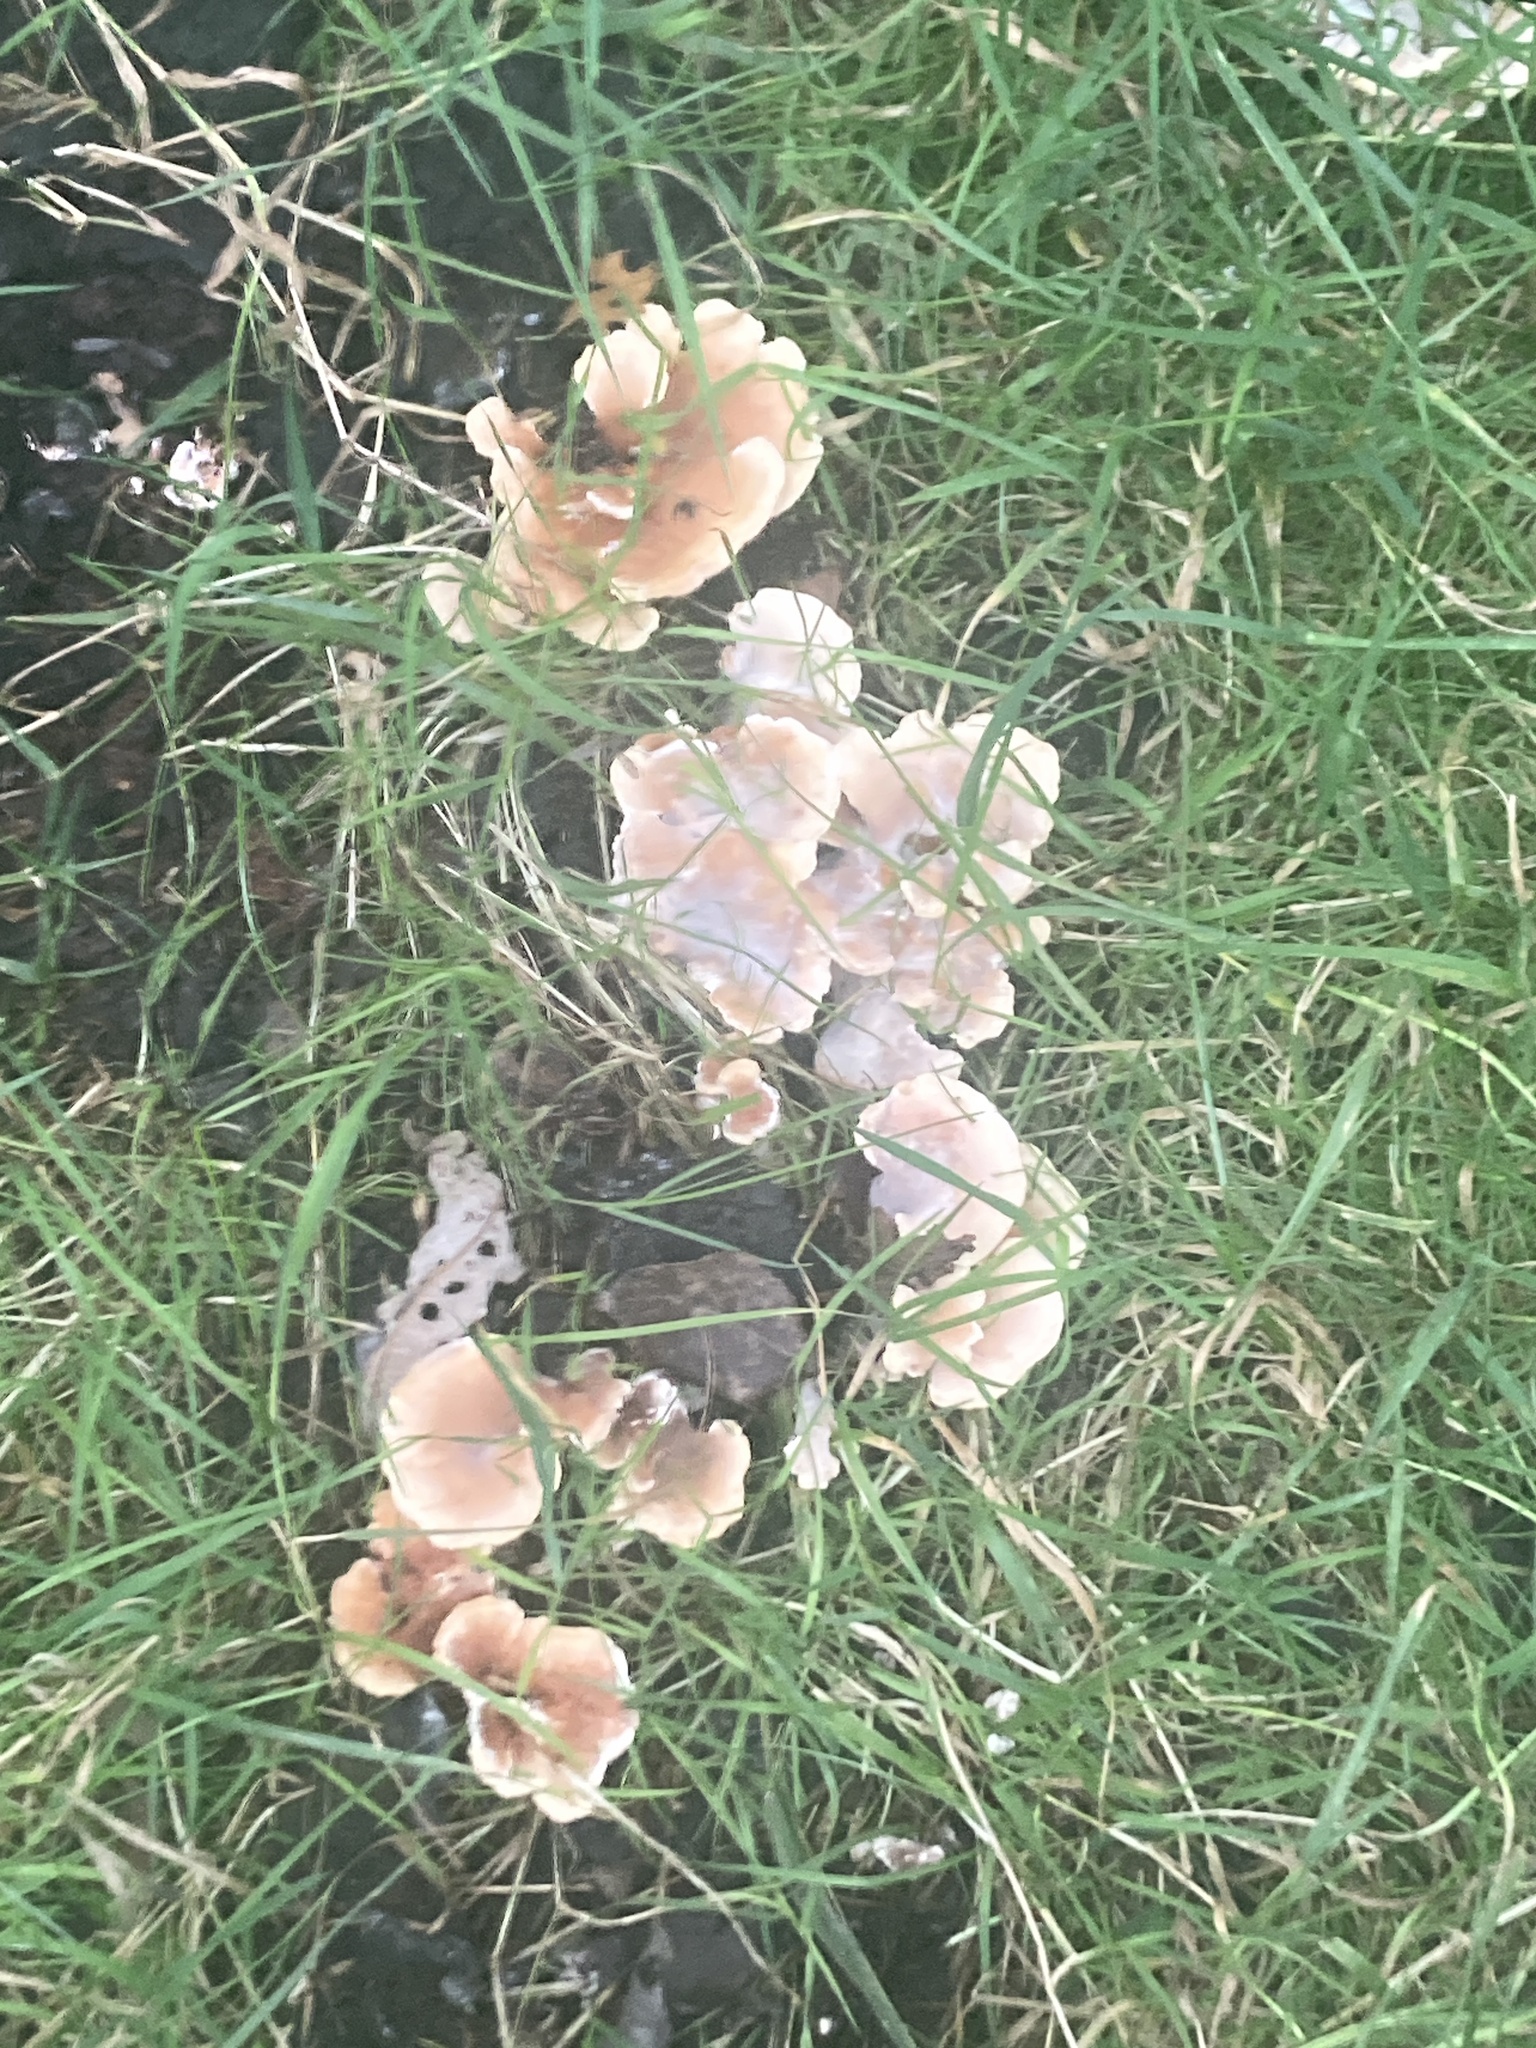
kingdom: Fungi
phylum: Basidiomycota
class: Agaricomycetes
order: Polyporales
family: Podoscyphaceae
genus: Abortiporus
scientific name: Abortiporus biennis
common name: Blushing rosette
